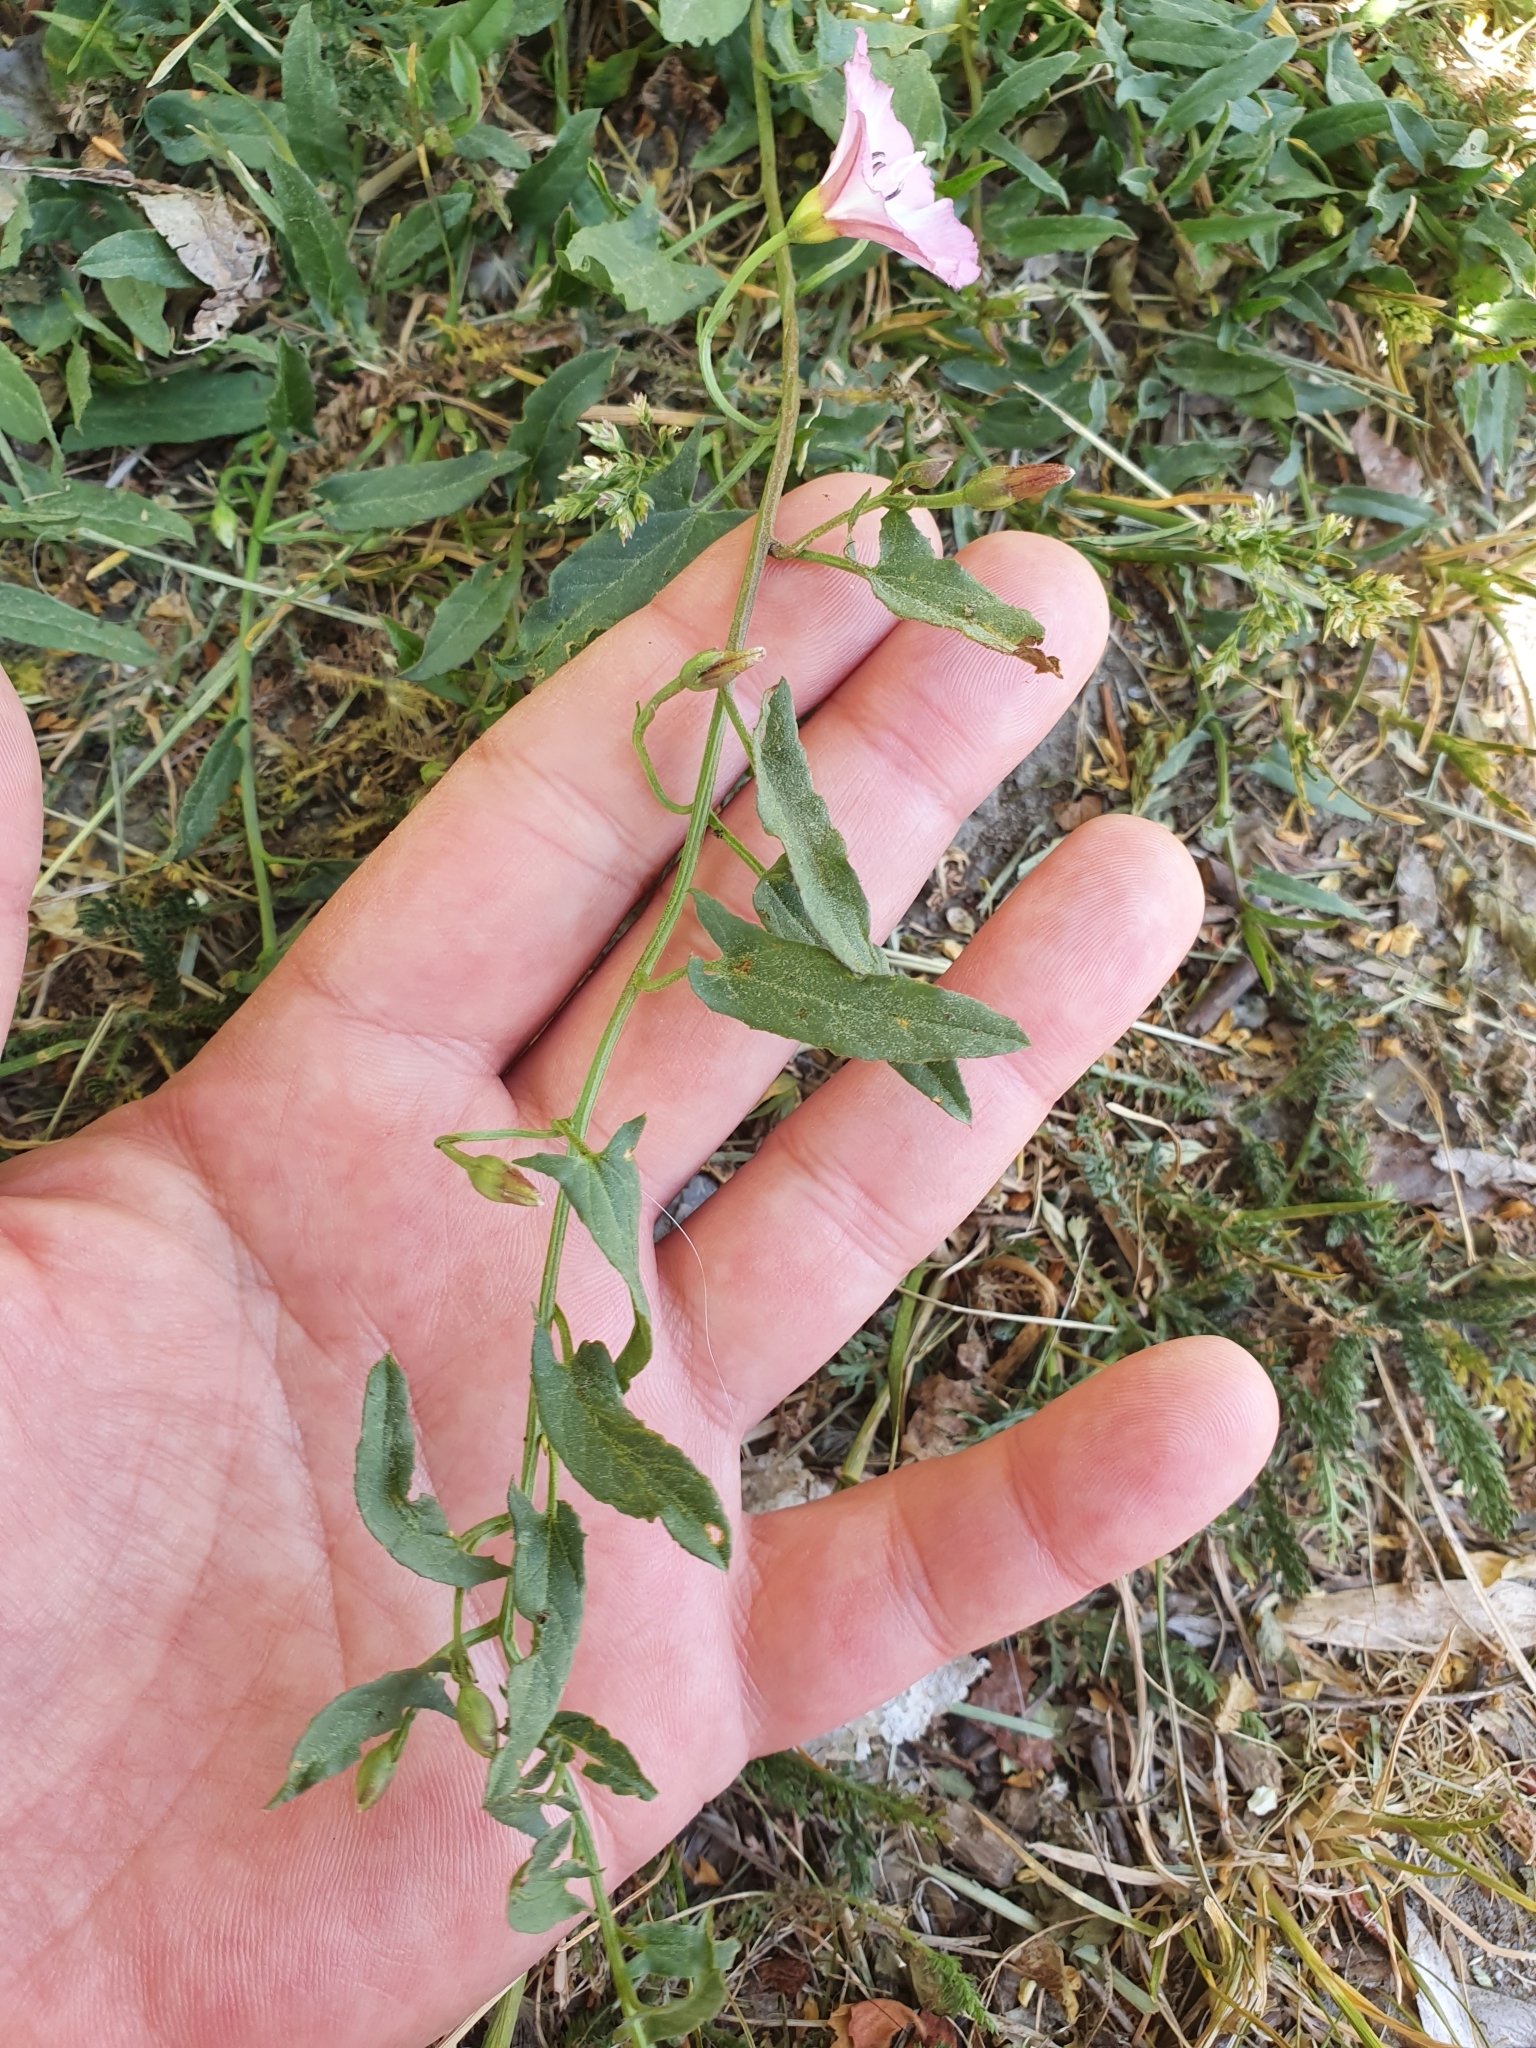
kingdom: Plantae
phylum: Tracheophyta
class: Magnoliopsida
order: Solanales
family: Convolvulaceae
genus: Convolvulus
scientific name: Convolvulus arvensis
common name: Field bindweed
